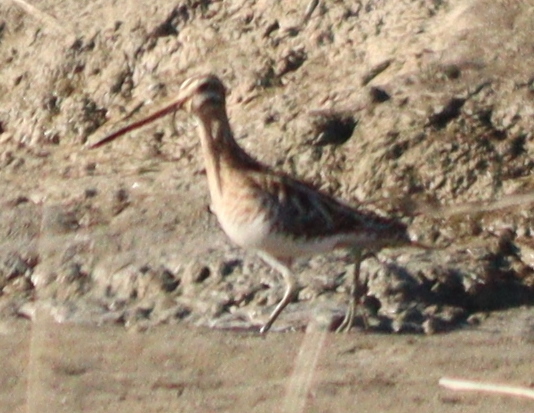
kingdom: Animalia
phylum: Chordata
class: Aves
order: Charadriiformes
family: Scolopacidae
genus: Gallinago
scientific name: Gallinago gallinago
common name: Common snipe
